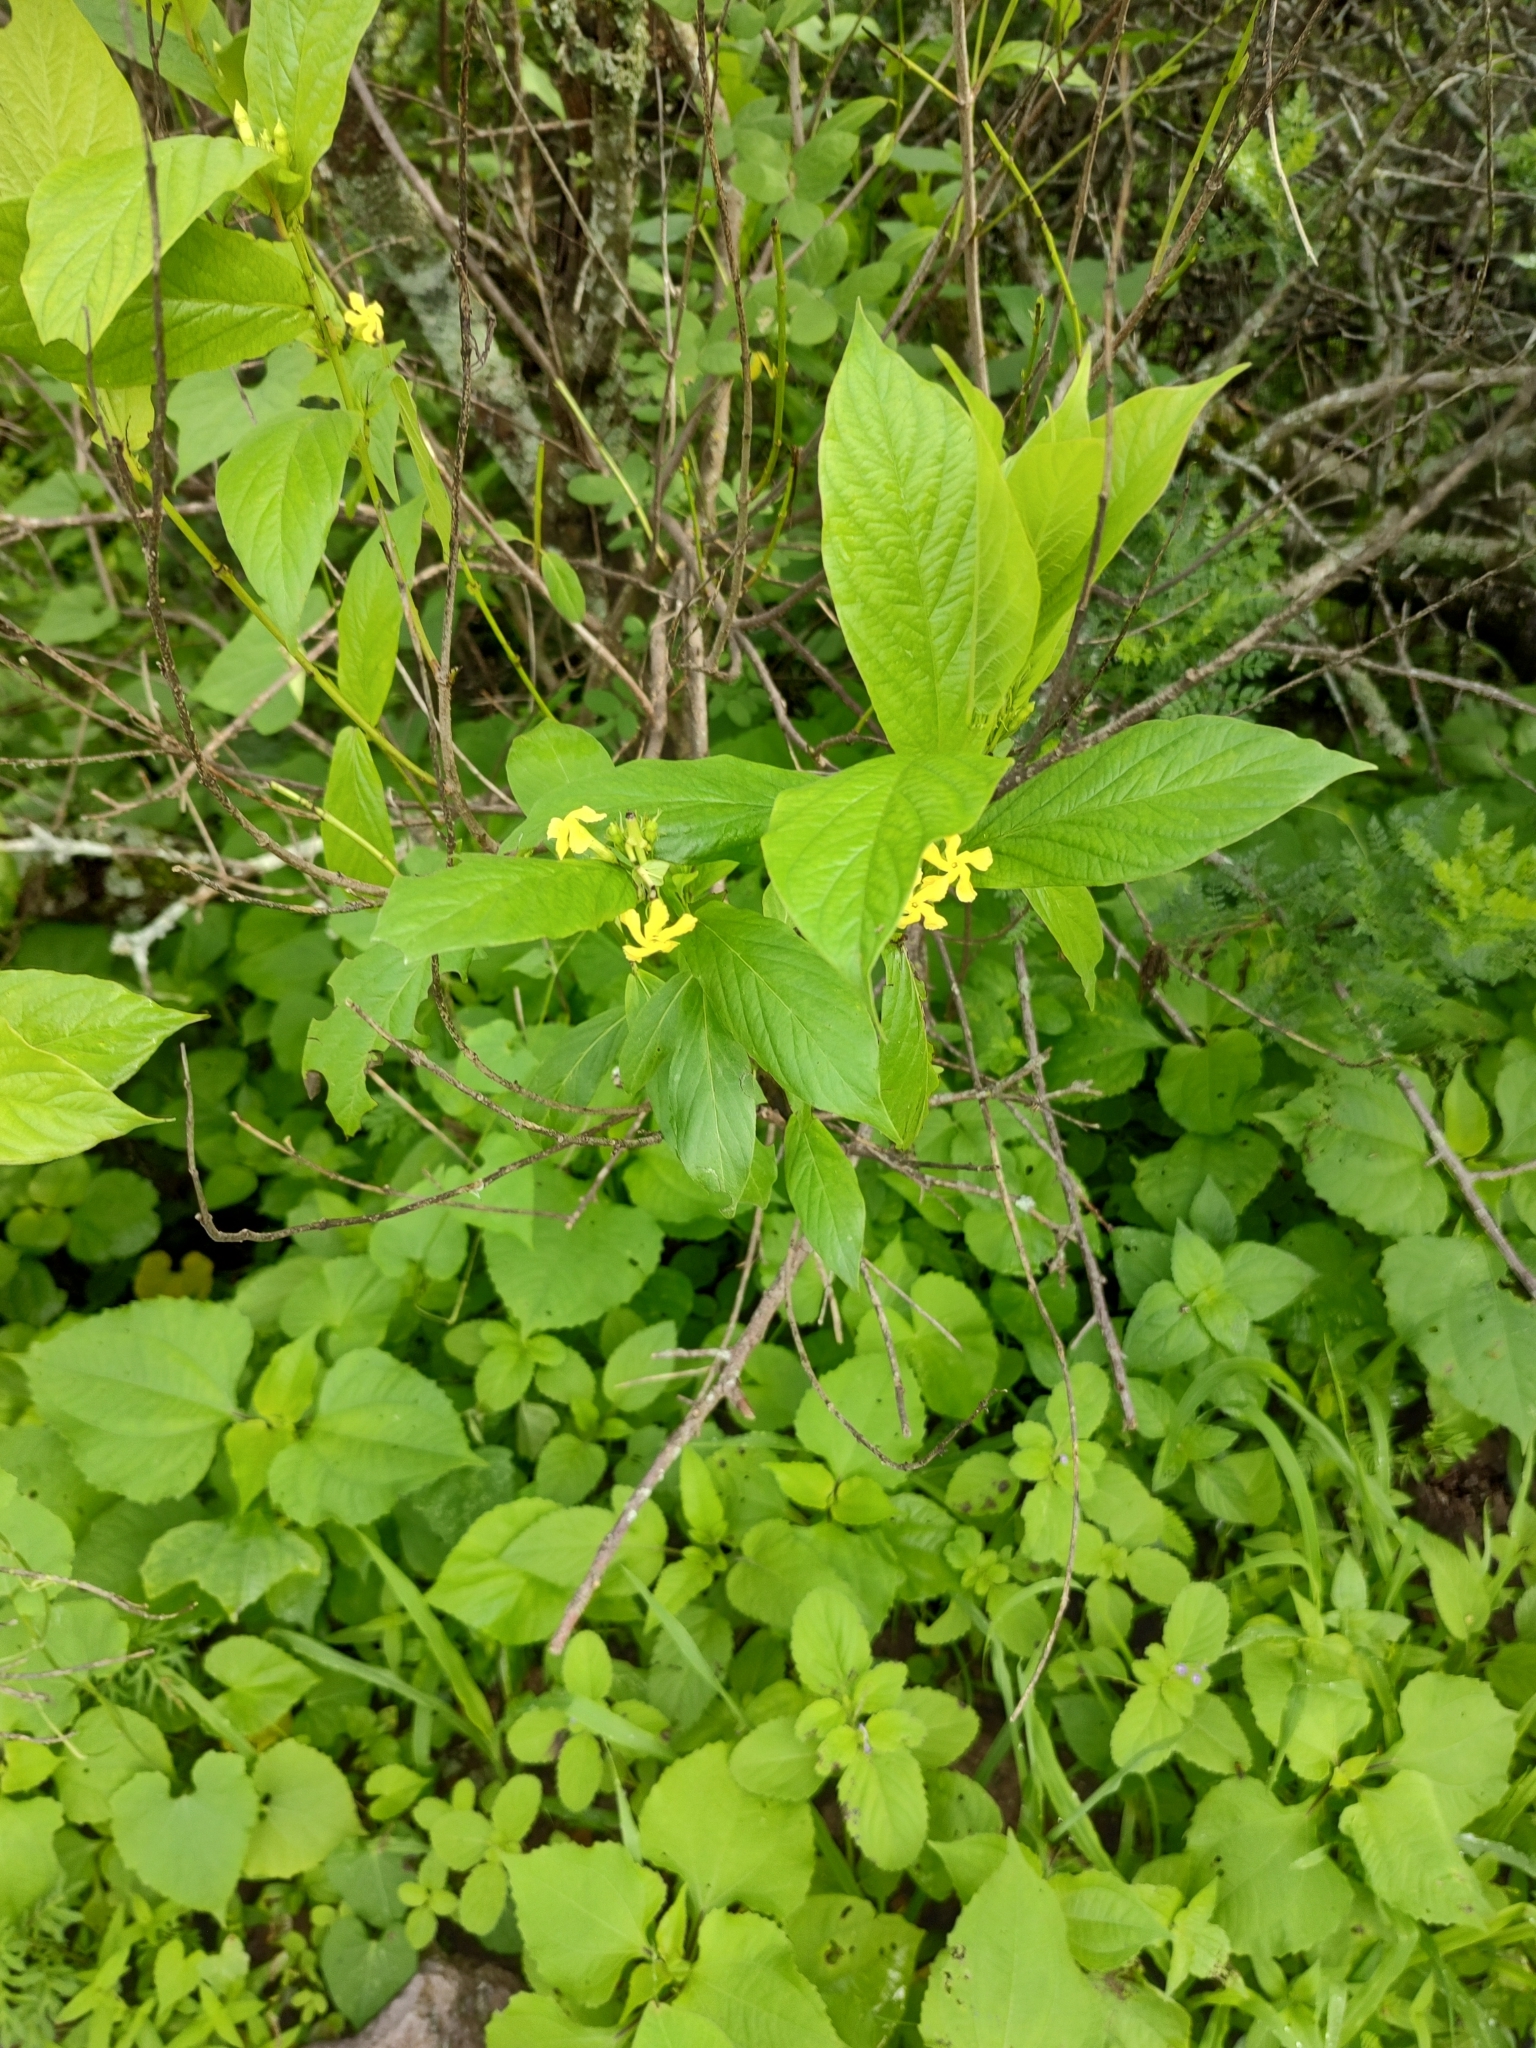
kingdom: Plantae
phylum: Tracheophyta
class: Magnoliopsida
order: Gentianales
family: Apocynaceae
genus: Mandevilla
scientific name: Mandevilla foliosa
